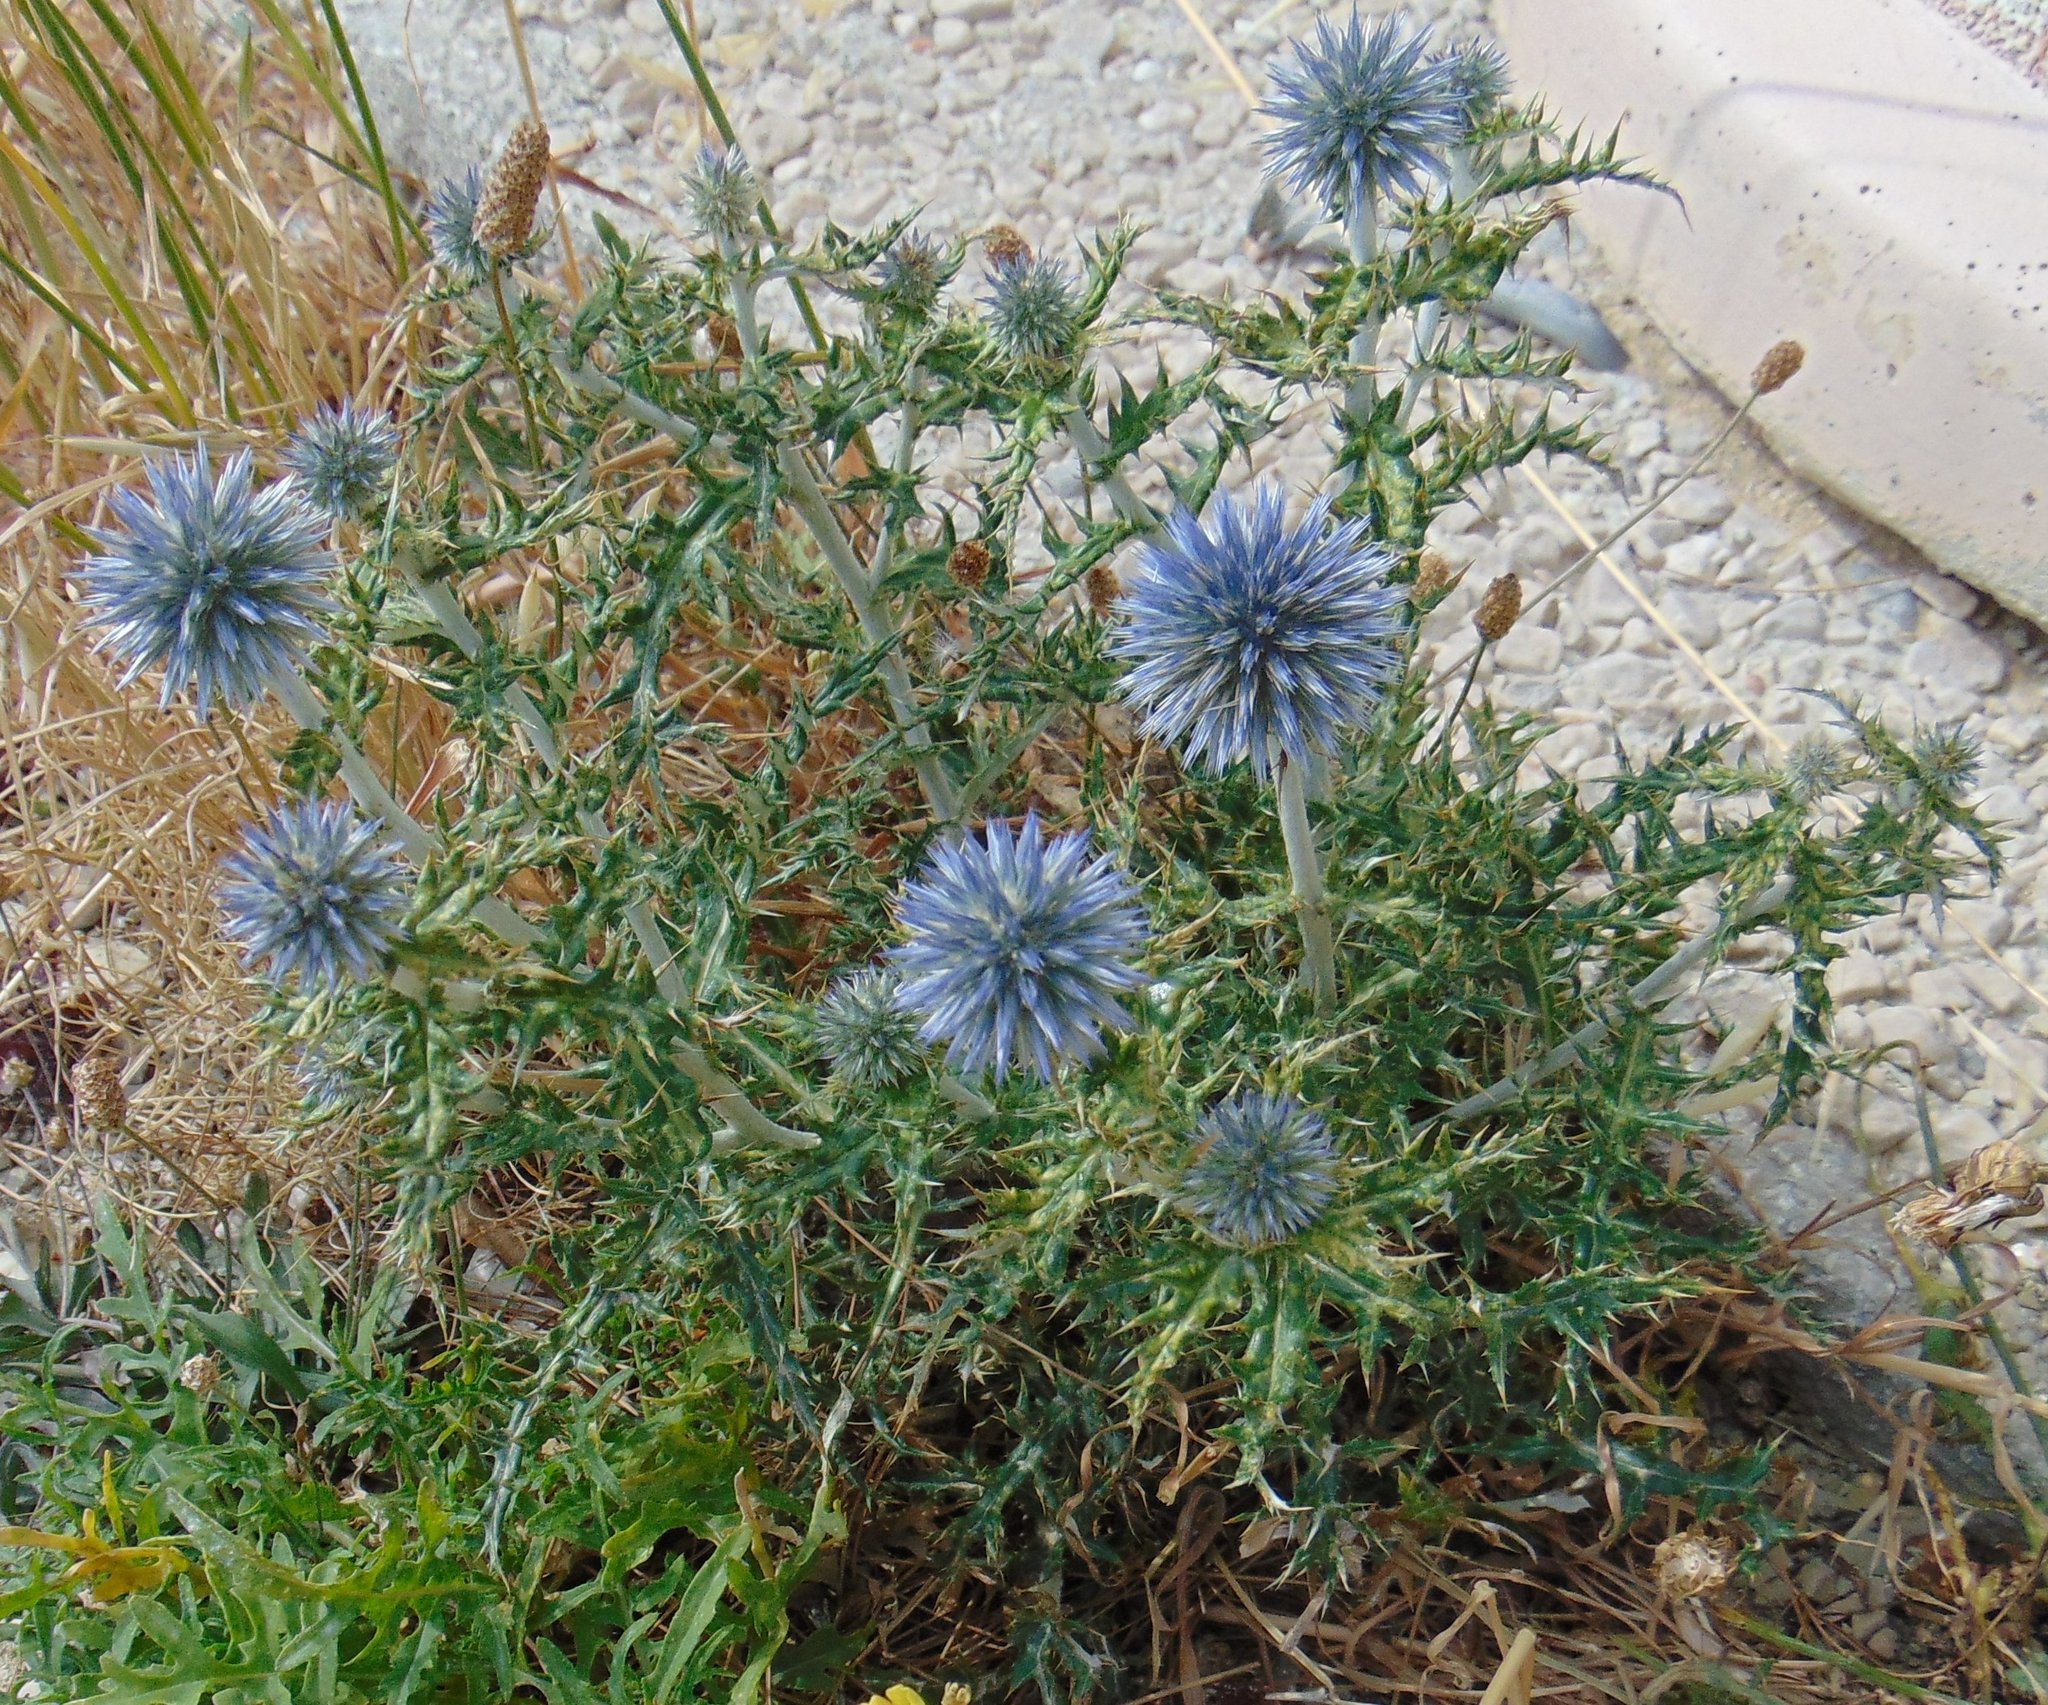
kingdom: Plantae
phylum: Tracheophyta
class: Magnoliopsida
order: Asterales
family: Asteraceae
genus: Echinops
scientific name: Echinops ritro
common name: Globe thistle
